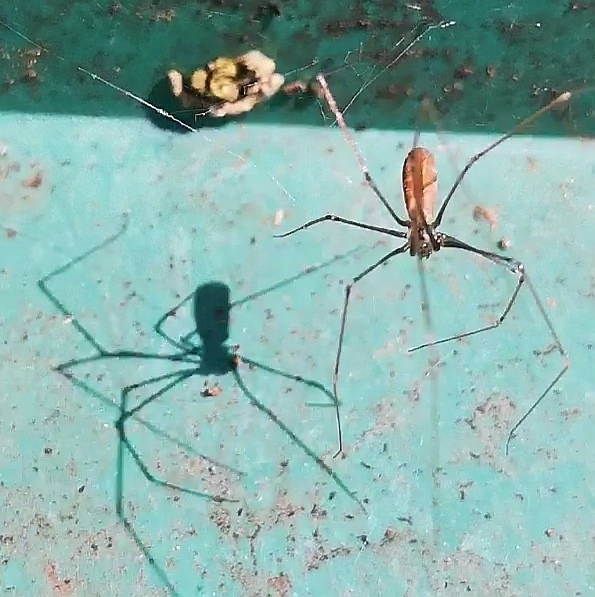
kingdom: Animalia
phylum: Arthropoda
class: Arachnida
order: Araneae
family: Pholcidae
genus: Pholcus
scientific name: Pholcus opilionoides
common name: Daddylongleg spider
